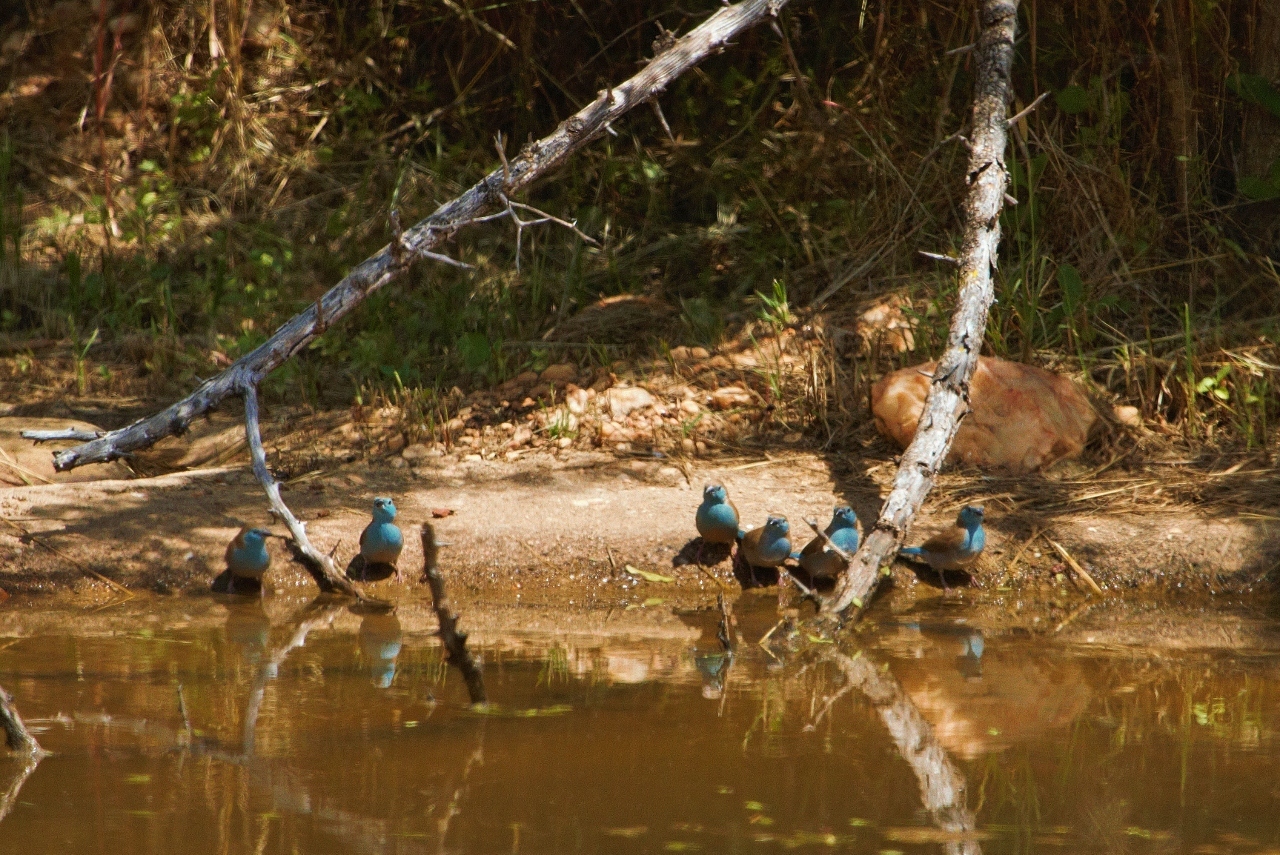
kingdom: Animalia
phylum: Chordata
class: Aves
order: Passeriformes
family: Estrildidae
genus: Uraeginthus
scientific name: Uraeginthus angolensis
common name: Blue waxbill
